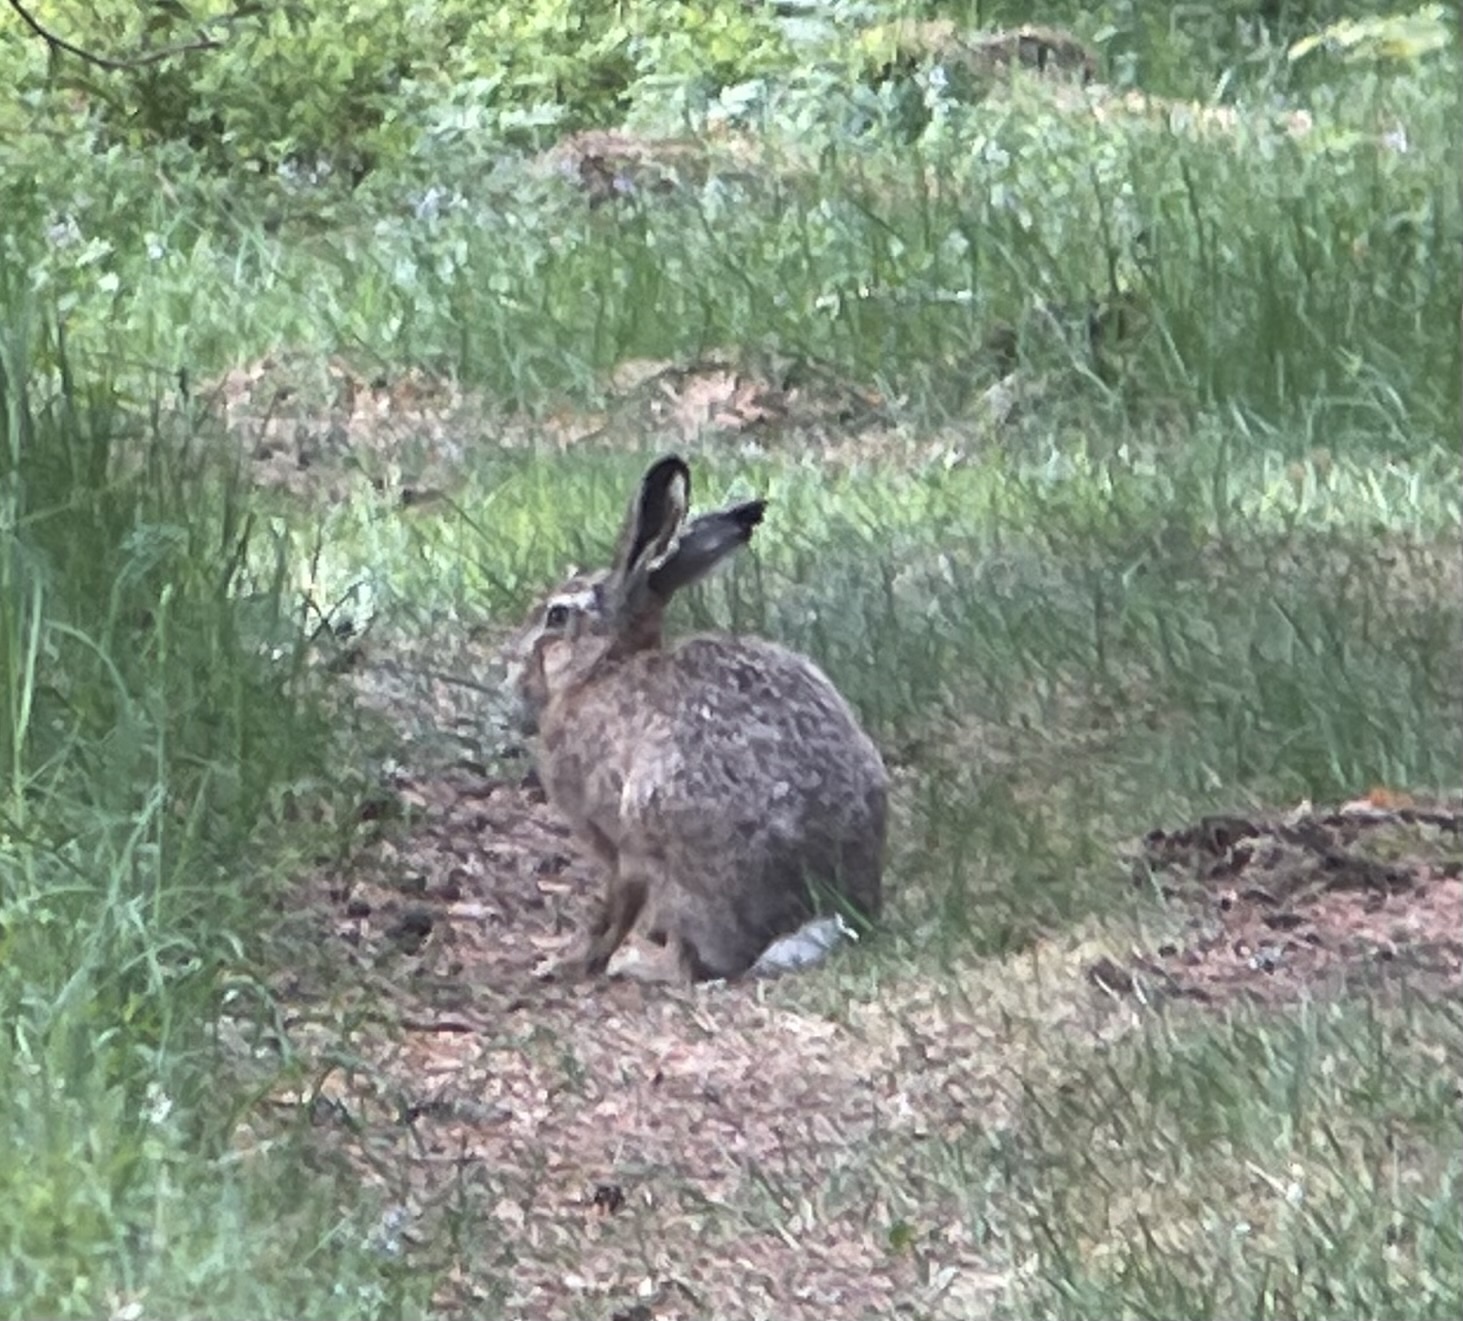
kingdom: Animalia
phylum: Chordata
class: Mammalia
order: Lagomorpha
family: Leporidae
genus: Lepus
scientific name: Lepus europaeus
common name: European hare
